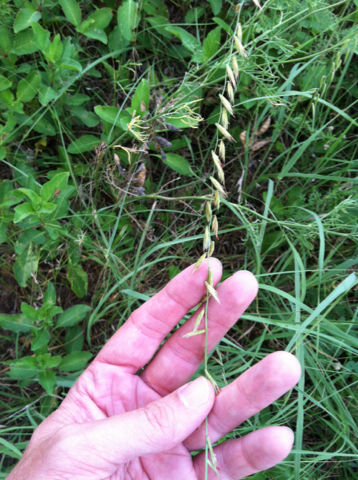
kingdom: Plantae
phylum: Tracheophyta
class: Liliopsida
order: Poales
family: Poaceae
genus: Bouteloua
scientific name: Bouteloua curtipendula
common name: Side-oats grama
